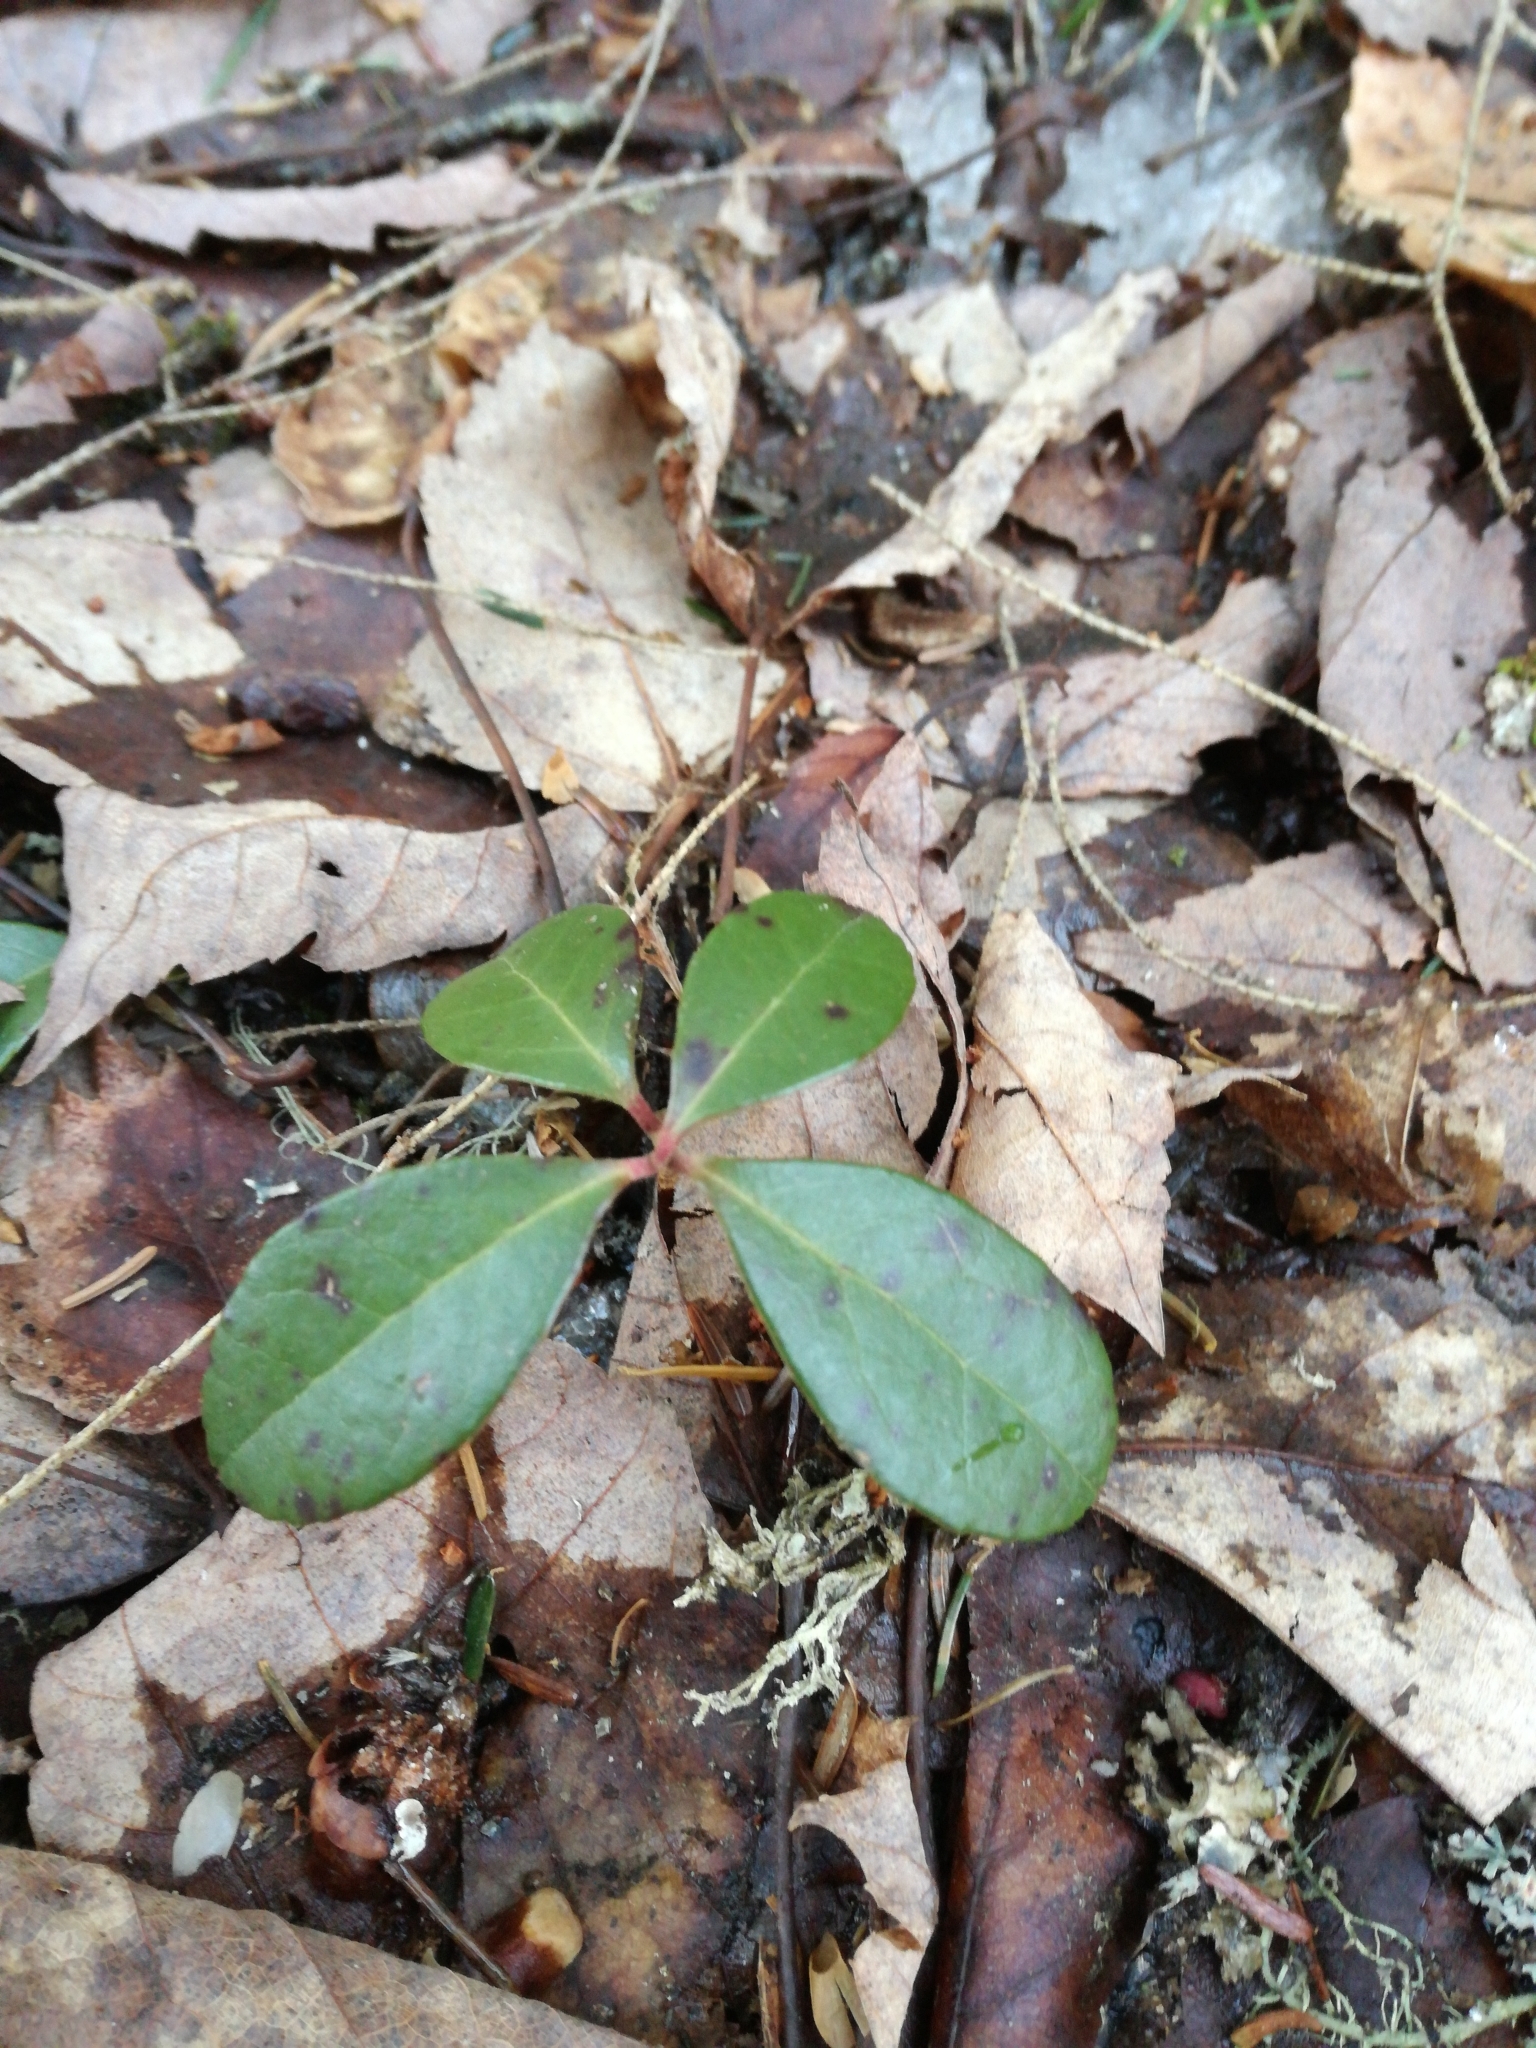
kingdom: Plantae
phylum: Tracheophyta
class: Magnoliopsida
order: Ericales
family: Ericaceae
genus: Gaultheria
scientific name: Gaultheria procumbens
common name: Checkerberry
